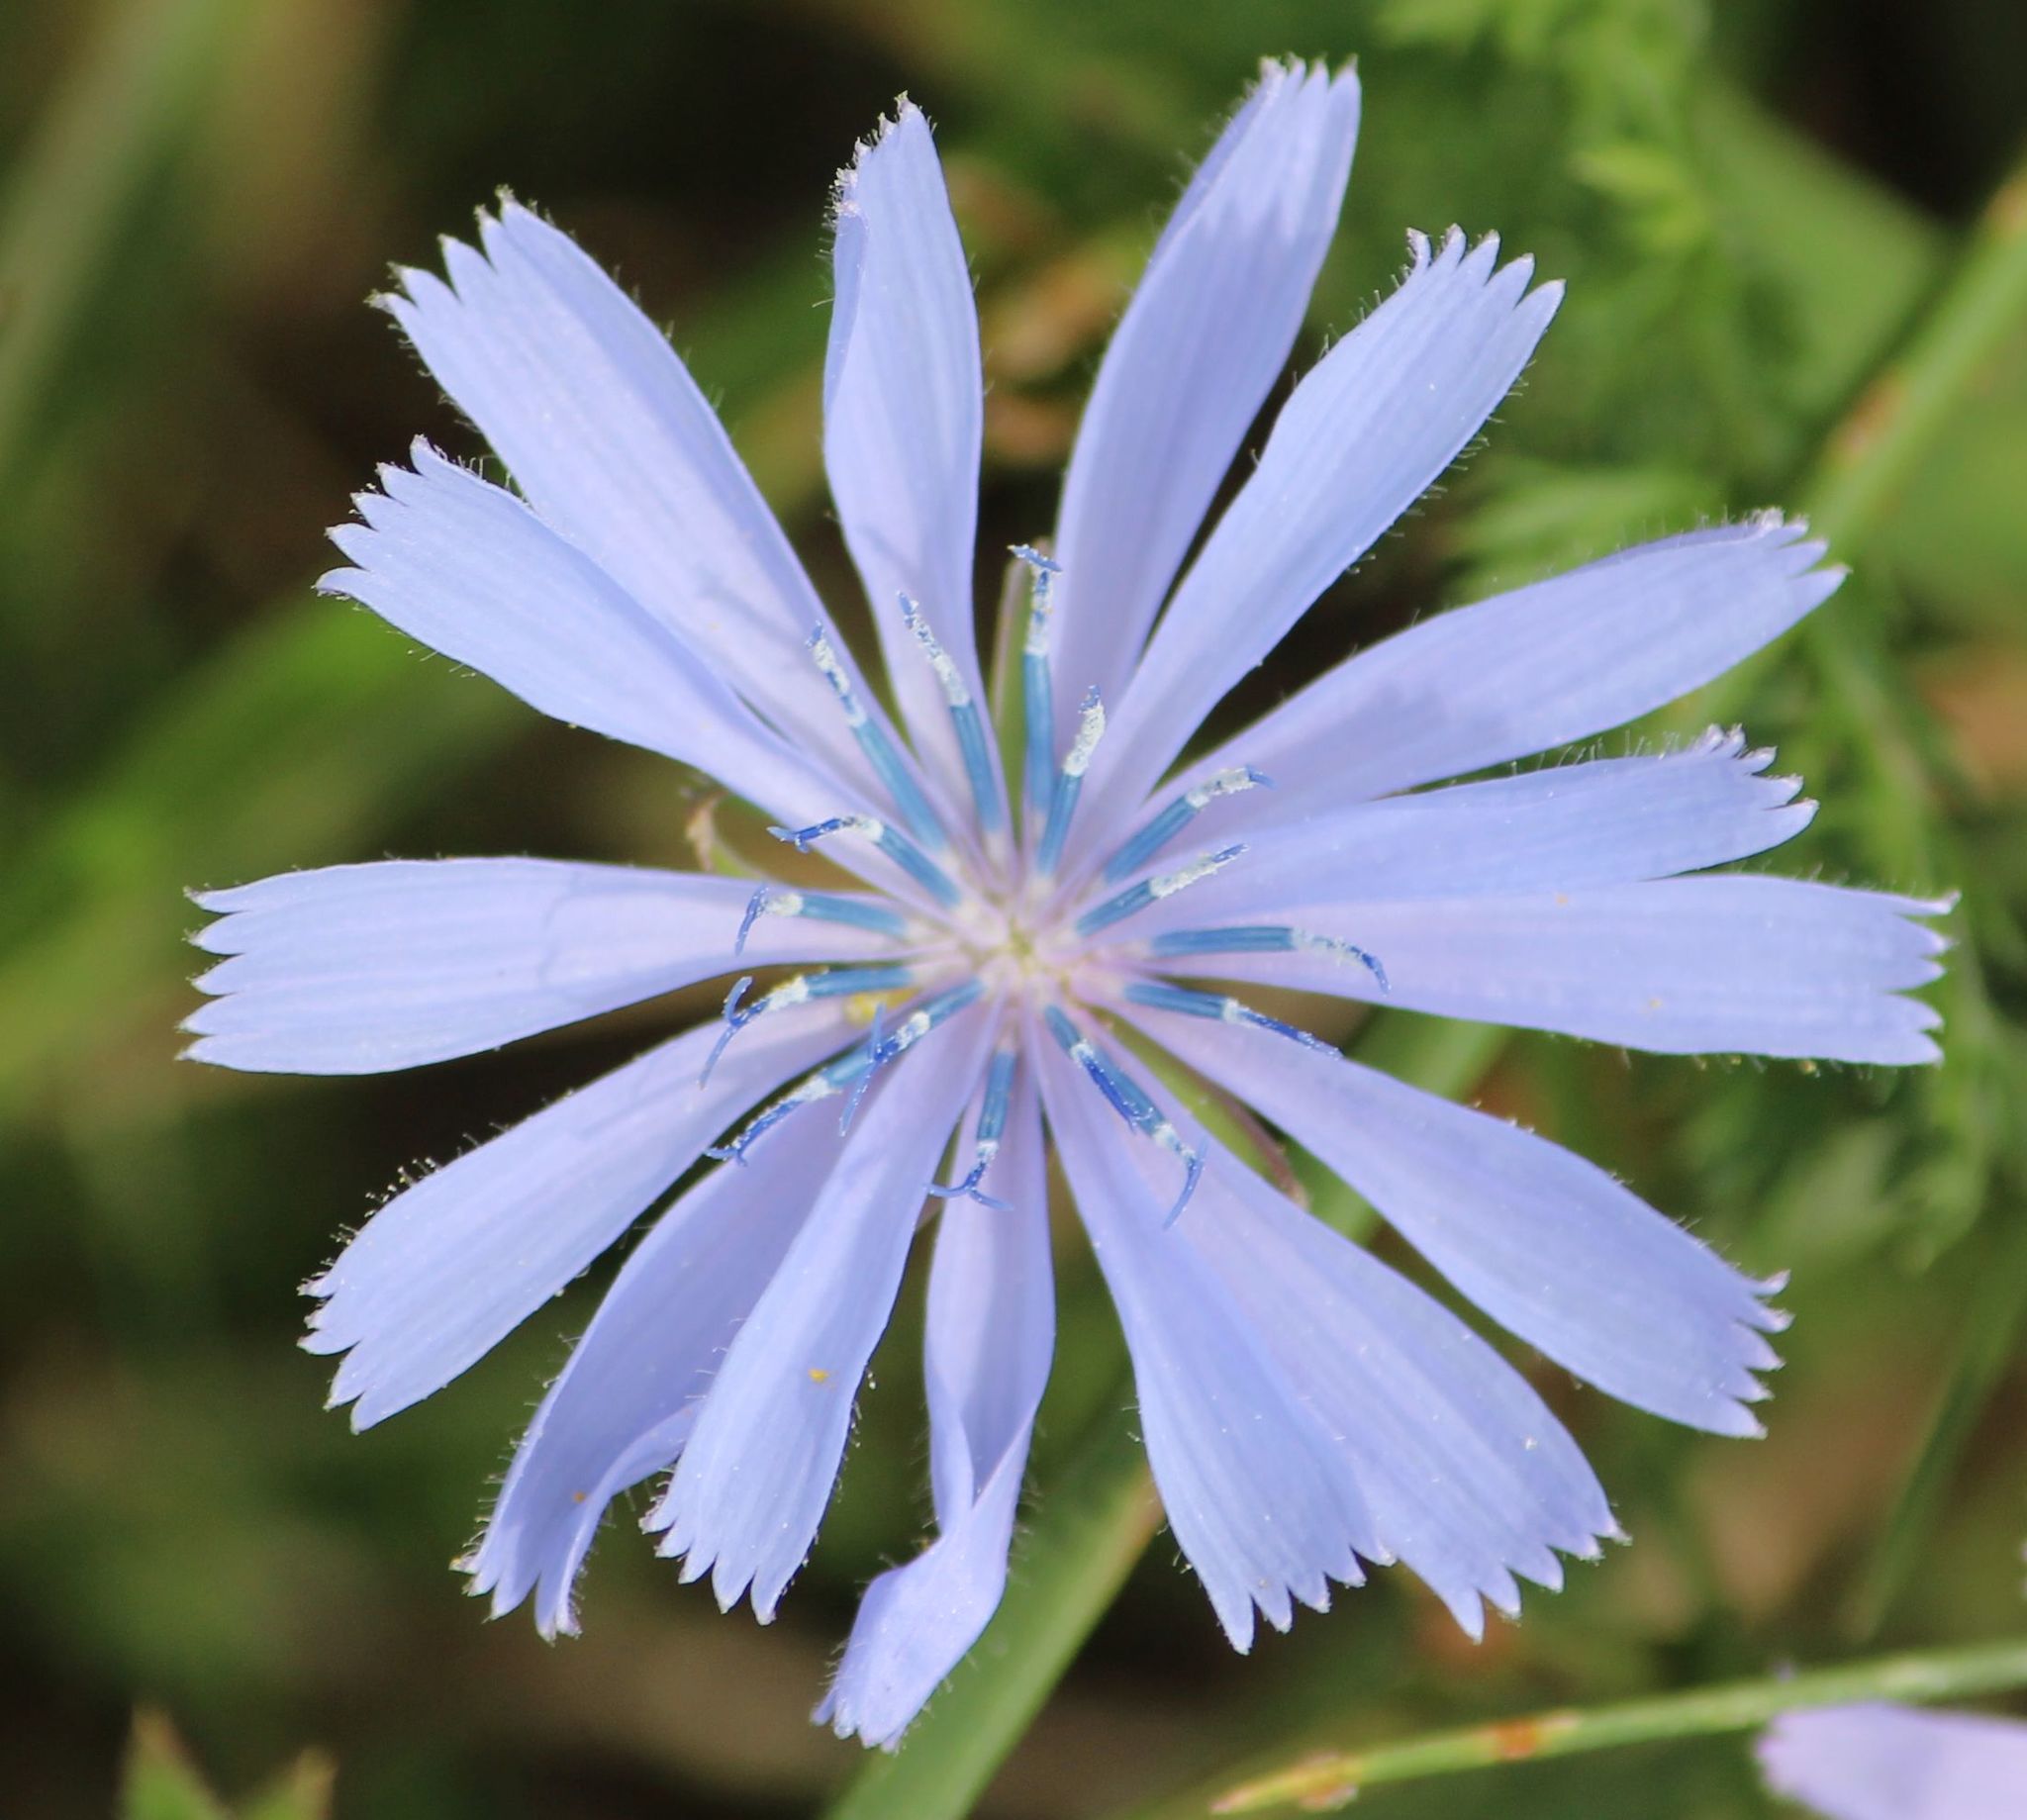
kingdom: Plantae
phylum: Tracheophyta
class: Magnoliopsida
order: Asterales
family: Asteraceae
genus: Cichorium
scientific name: Cichorium intybus
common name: Chicory
